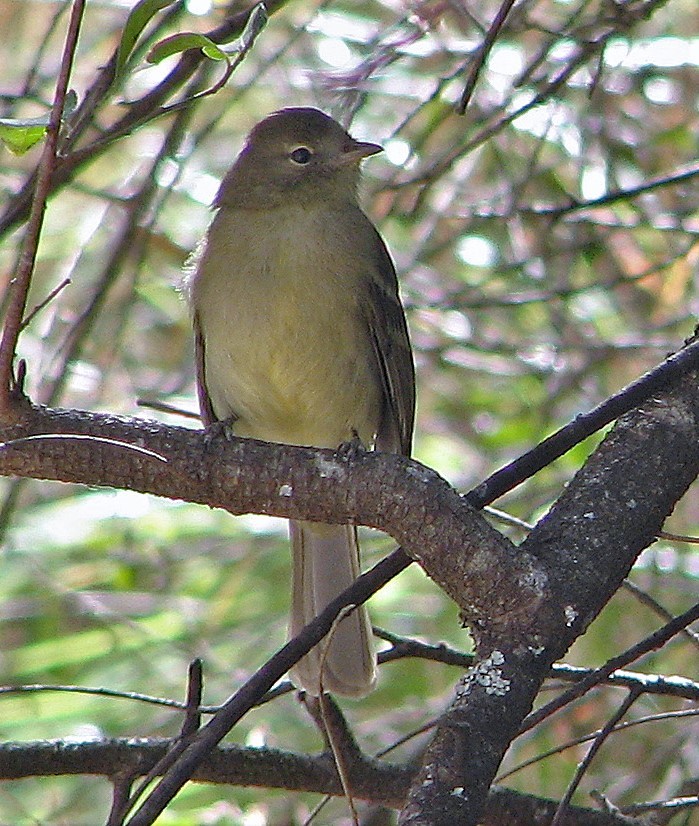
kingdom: Animalia
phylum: Chordata
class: Aves
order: Passeriformes
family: Tyrannidae
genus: Elaenia
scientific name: Elaenia obscura
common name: Highland elaenia
